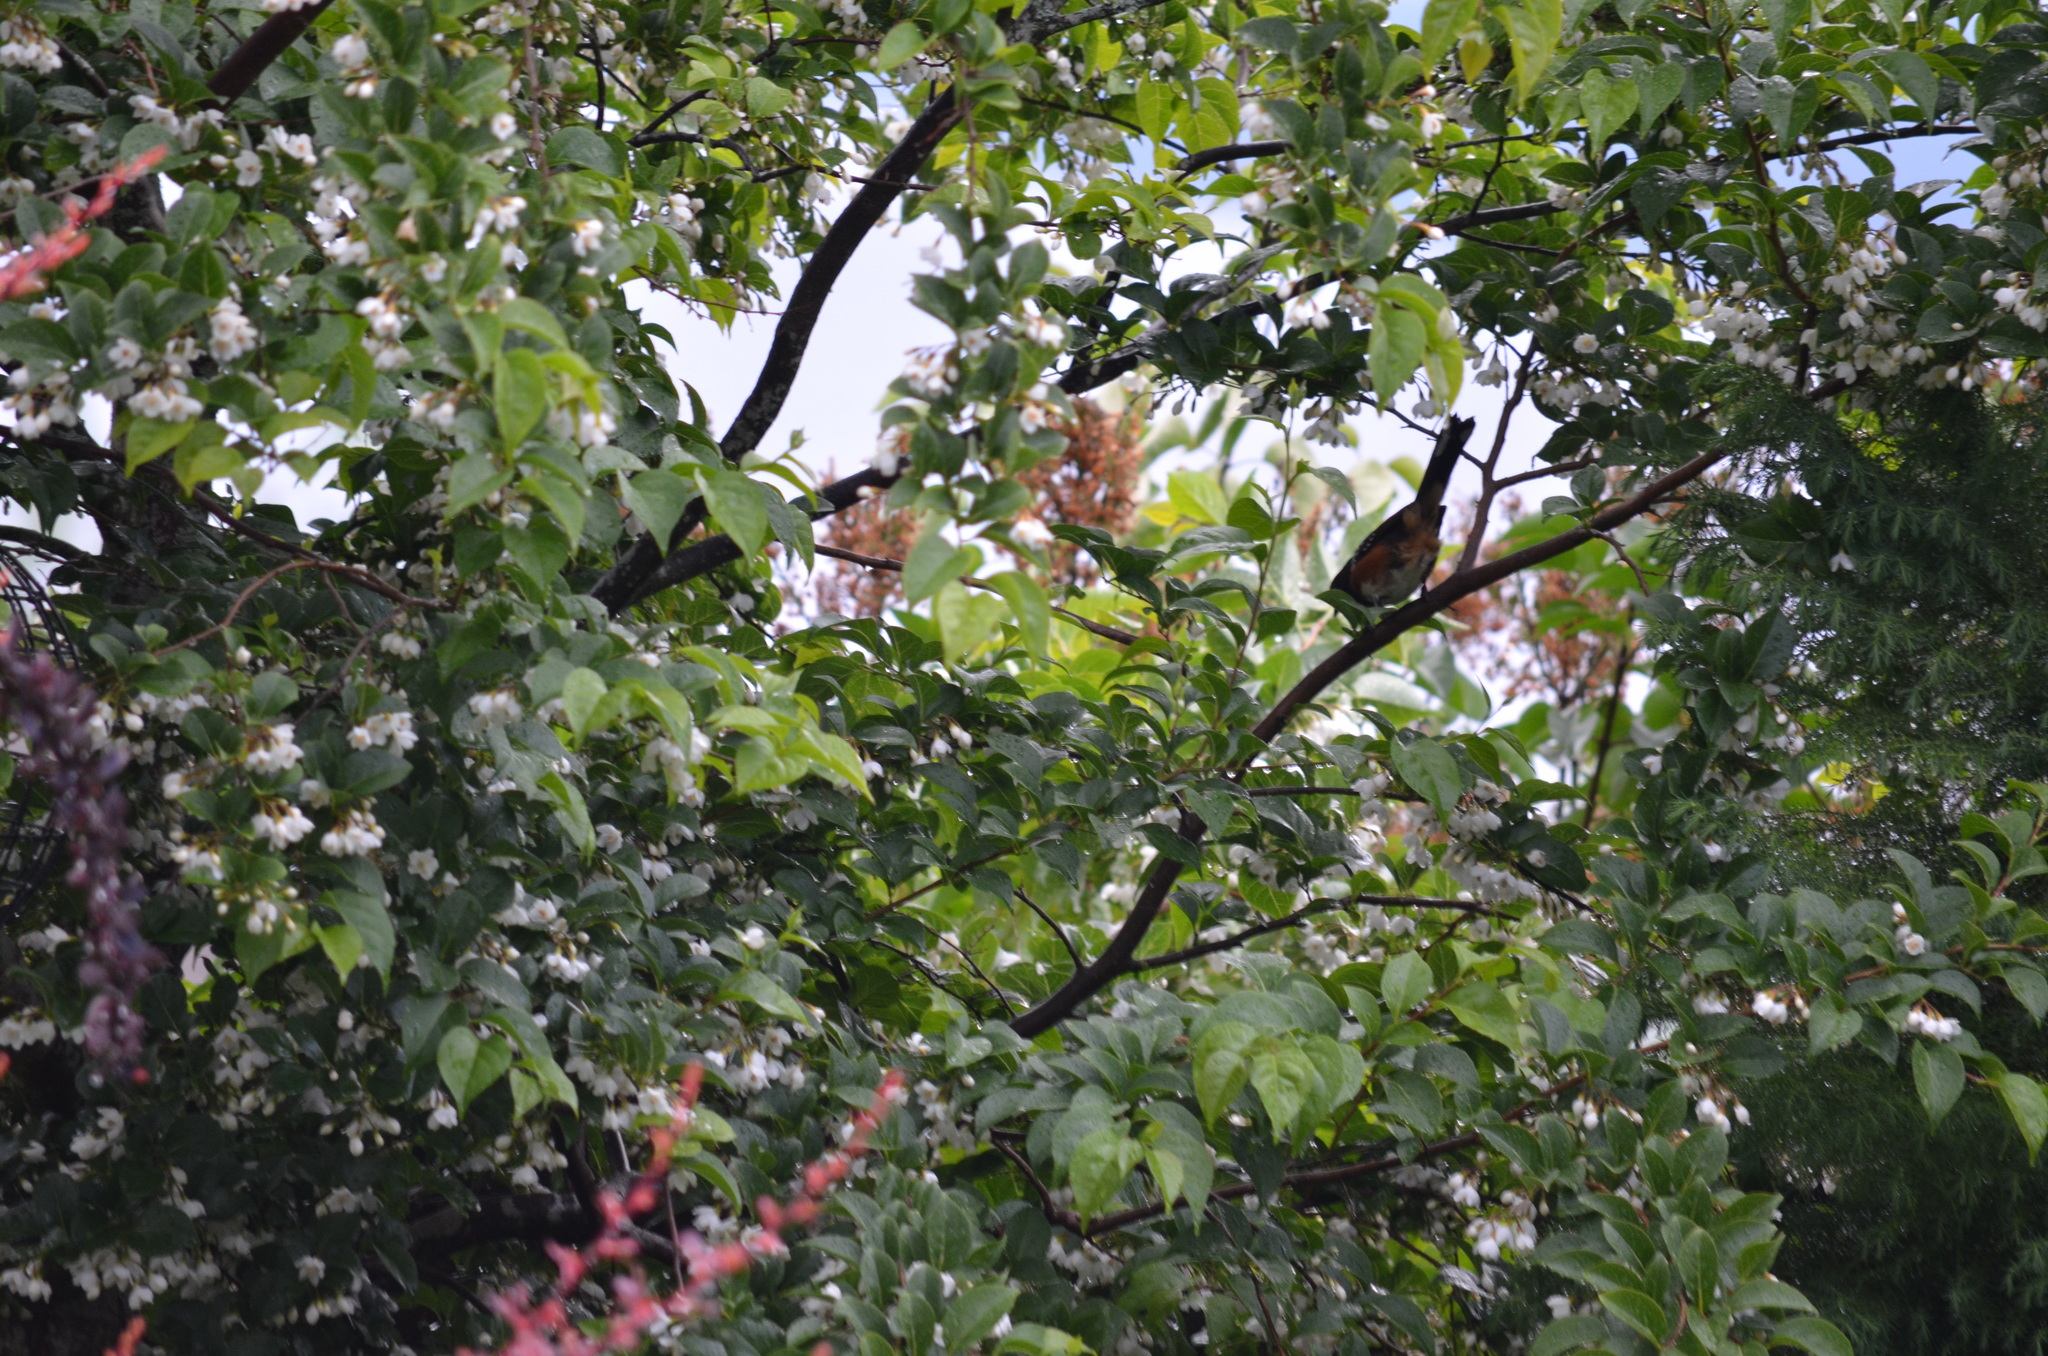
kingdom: Animalia
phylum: Chordata
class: Aves
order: Passeriformes
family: Passerellidae
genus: Pipilo
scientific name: Pipilo maculatus
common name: Spotted towhee
